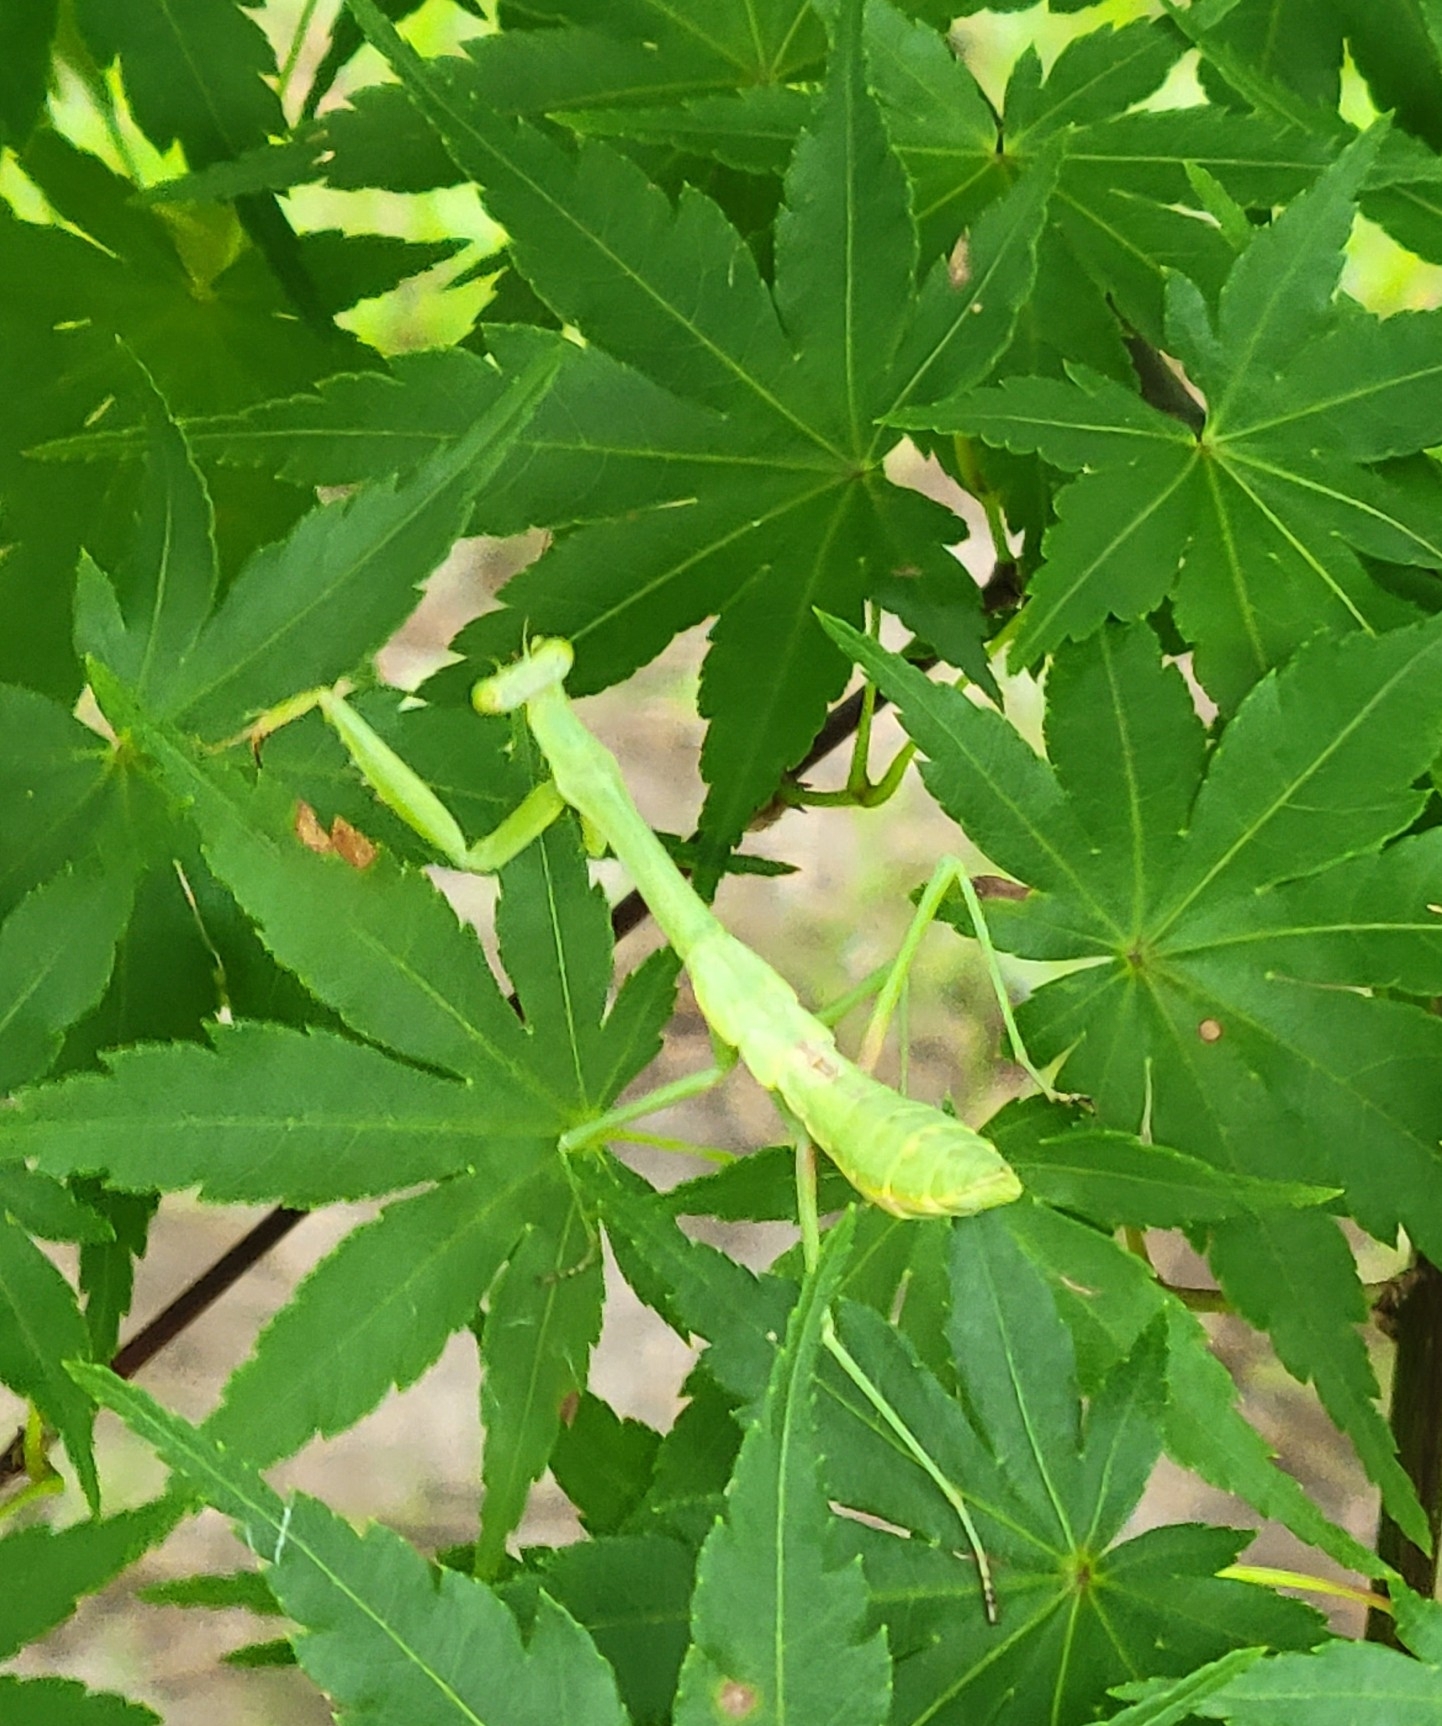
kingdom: Animalia
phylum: Arthropoda
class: Insecta
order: Mantodea
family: Mantidae
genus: Stagmomantis
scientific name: Stagmomantis carolina
